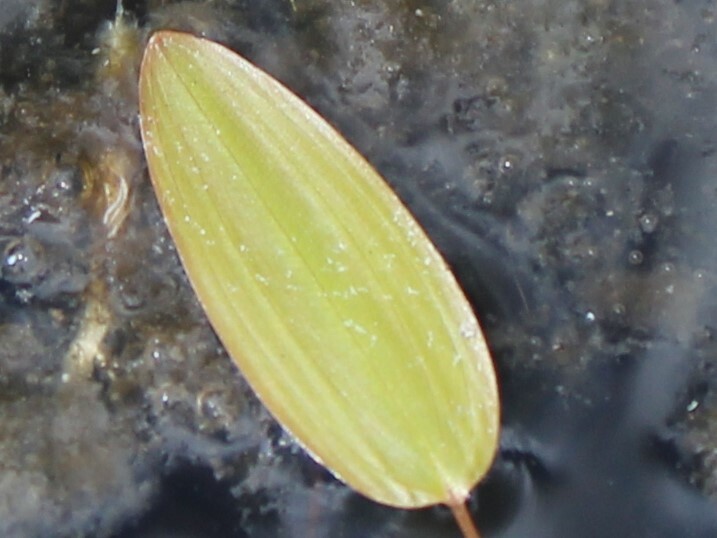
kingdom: Plantae
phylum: Tracheophyta
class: Liliopsida
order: Alismatales
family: Potamogetonaceae
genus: Potamogeton
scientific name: Potamogeton oakesianus
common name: Oakes' pondweed
